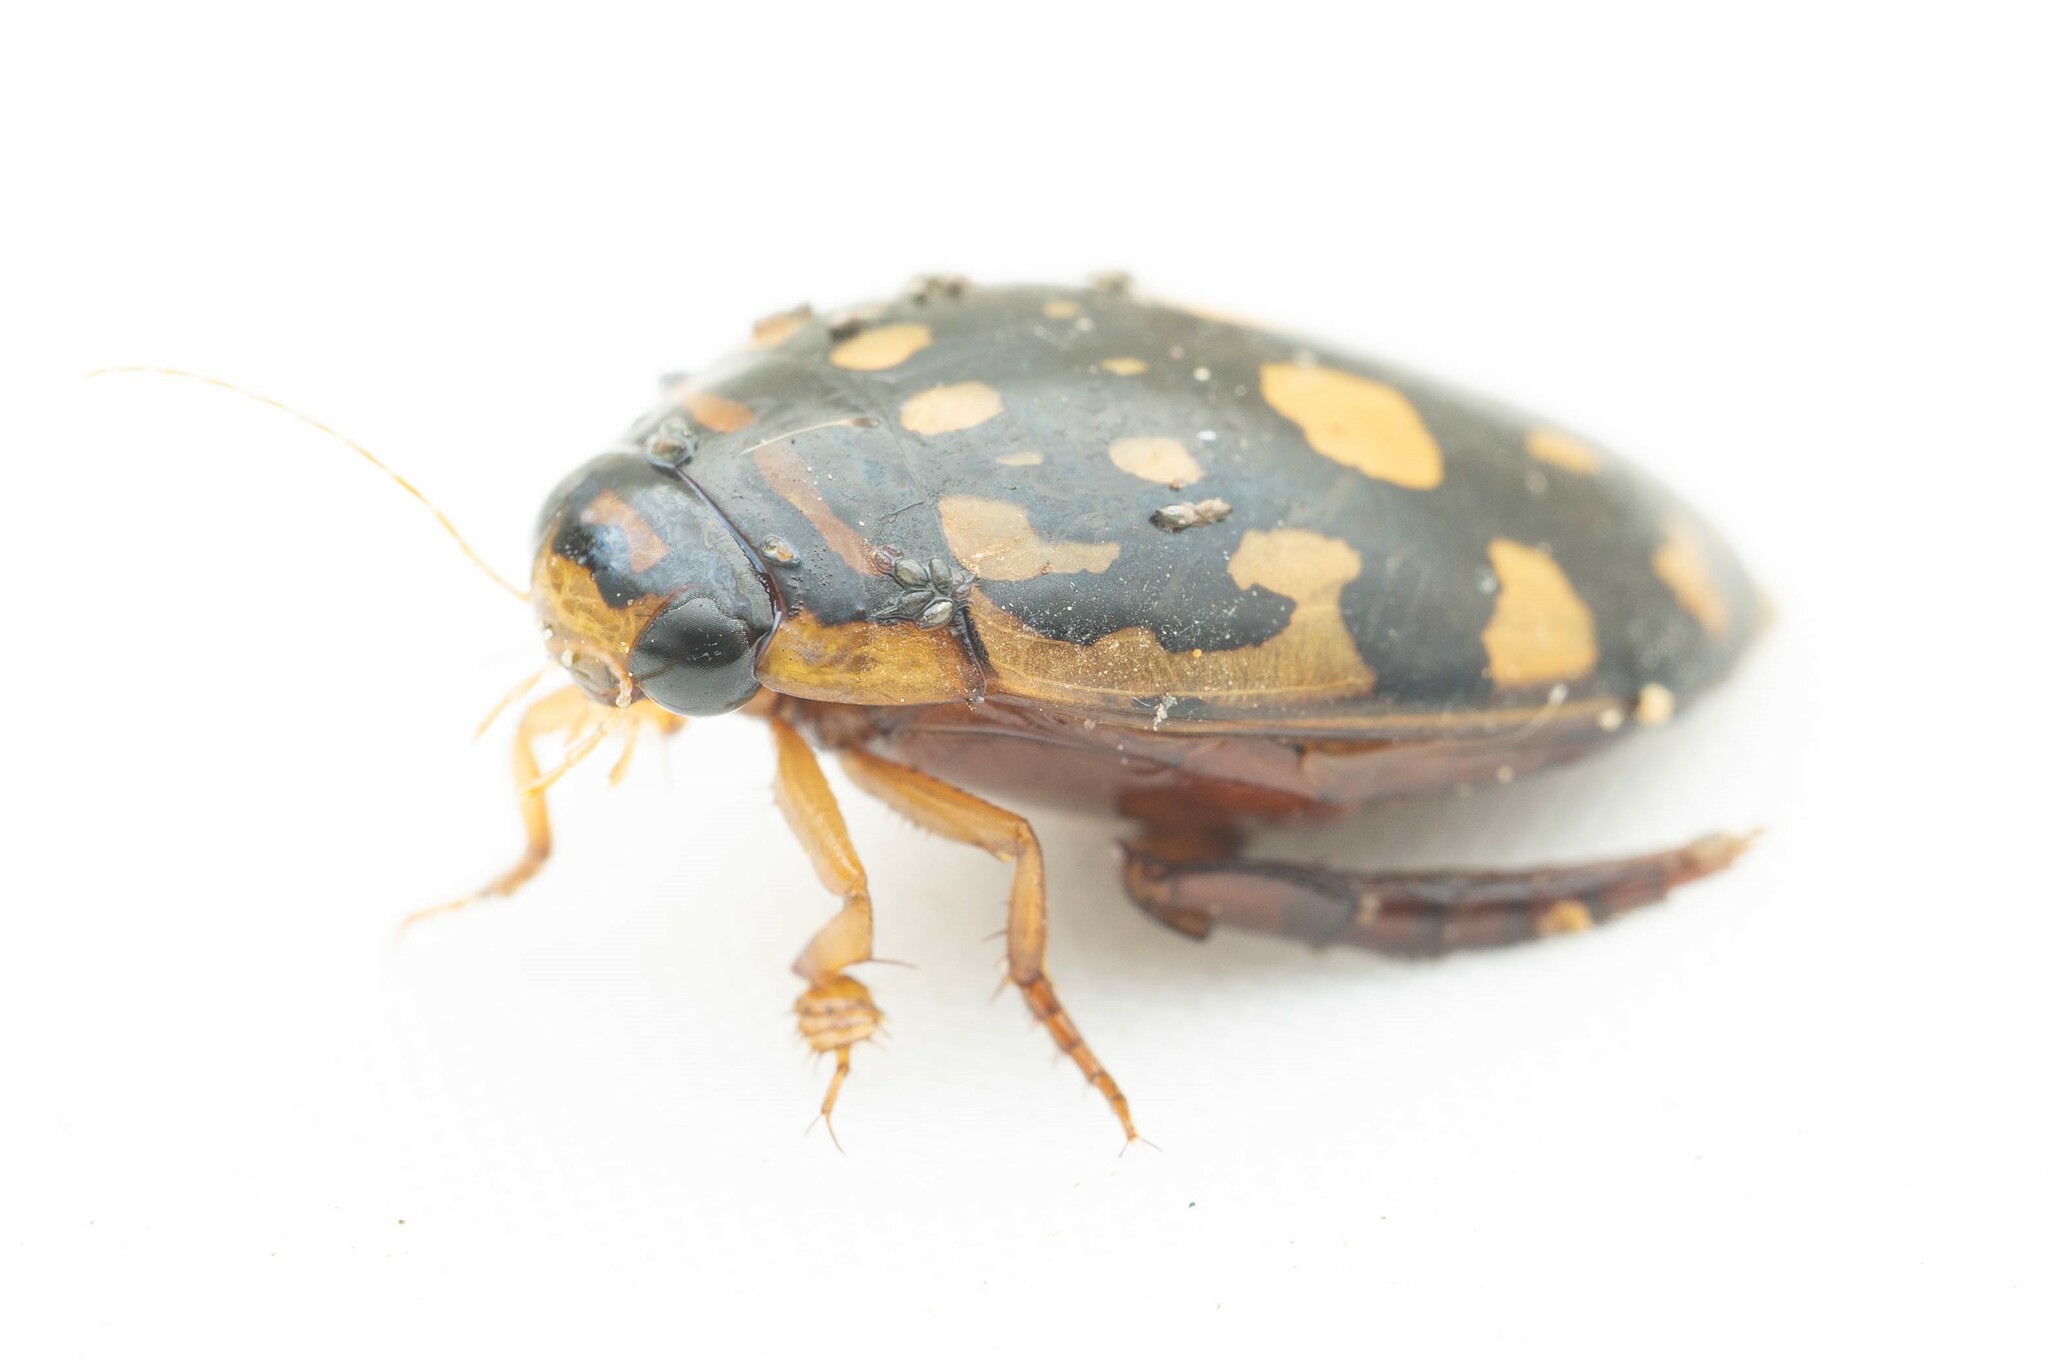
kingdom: Animalia
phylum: Arthropoda
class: Insecta
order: Coleoptera
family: Dytiscidae
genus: Thermonectus
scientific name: Thermonectus marmoratus
